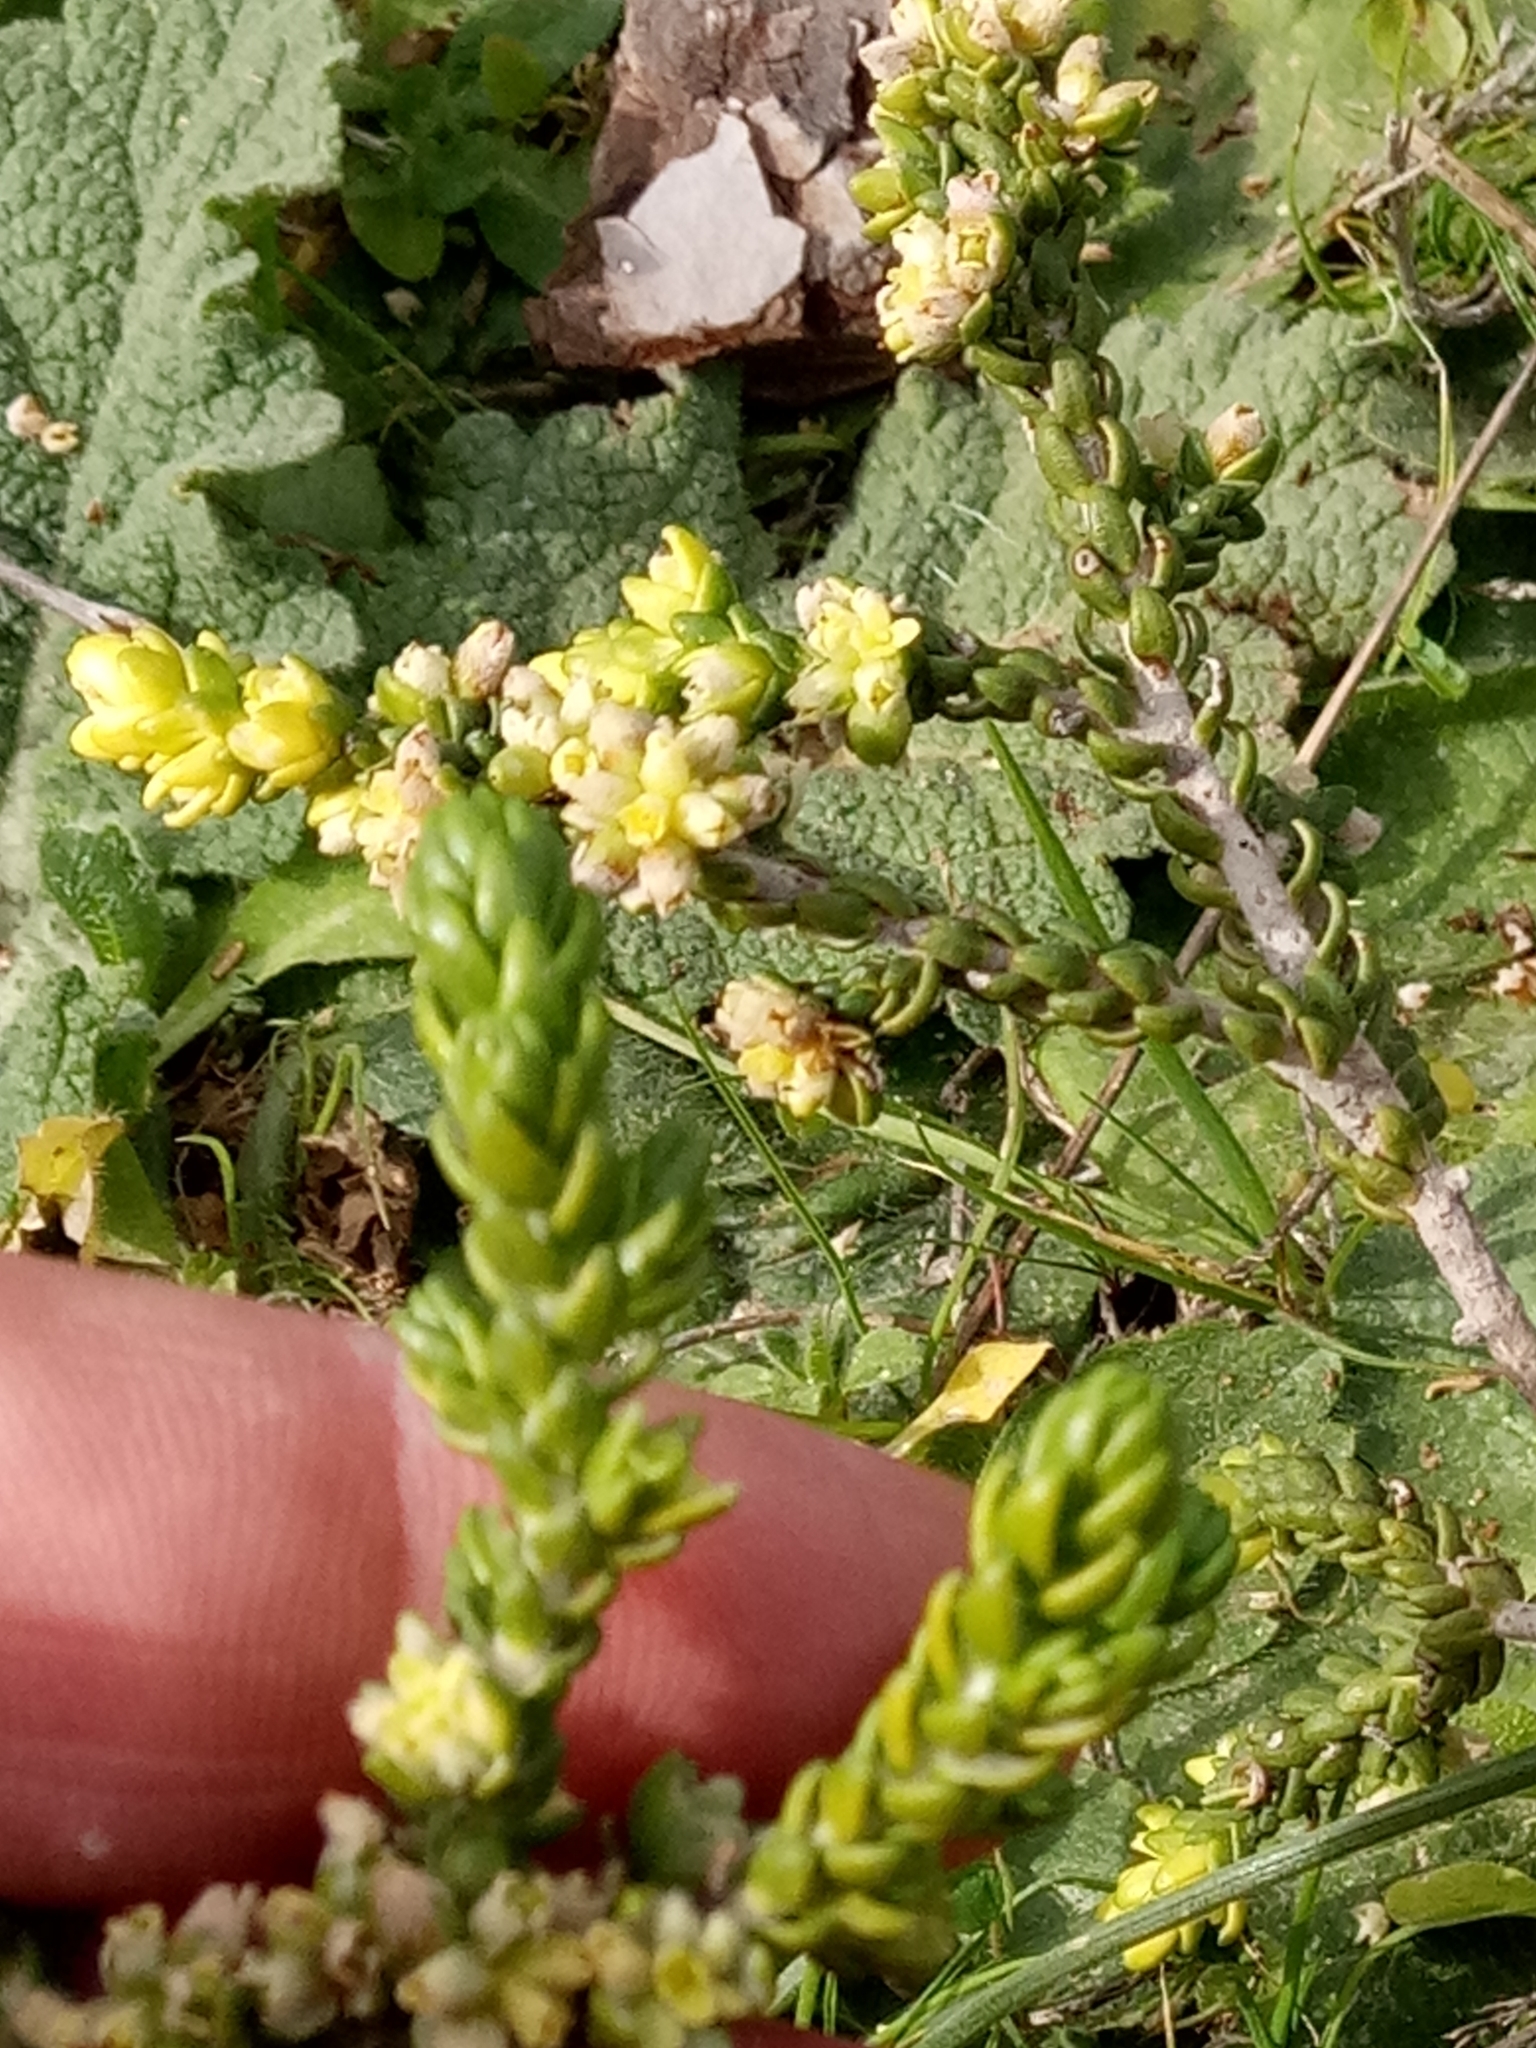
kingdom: Plantae
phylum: Tracheophyta
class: Magnoliopsida
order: Malvales
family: Thymelaeaceae
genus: Thymelaea
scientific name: Thymelaea hirsuta
